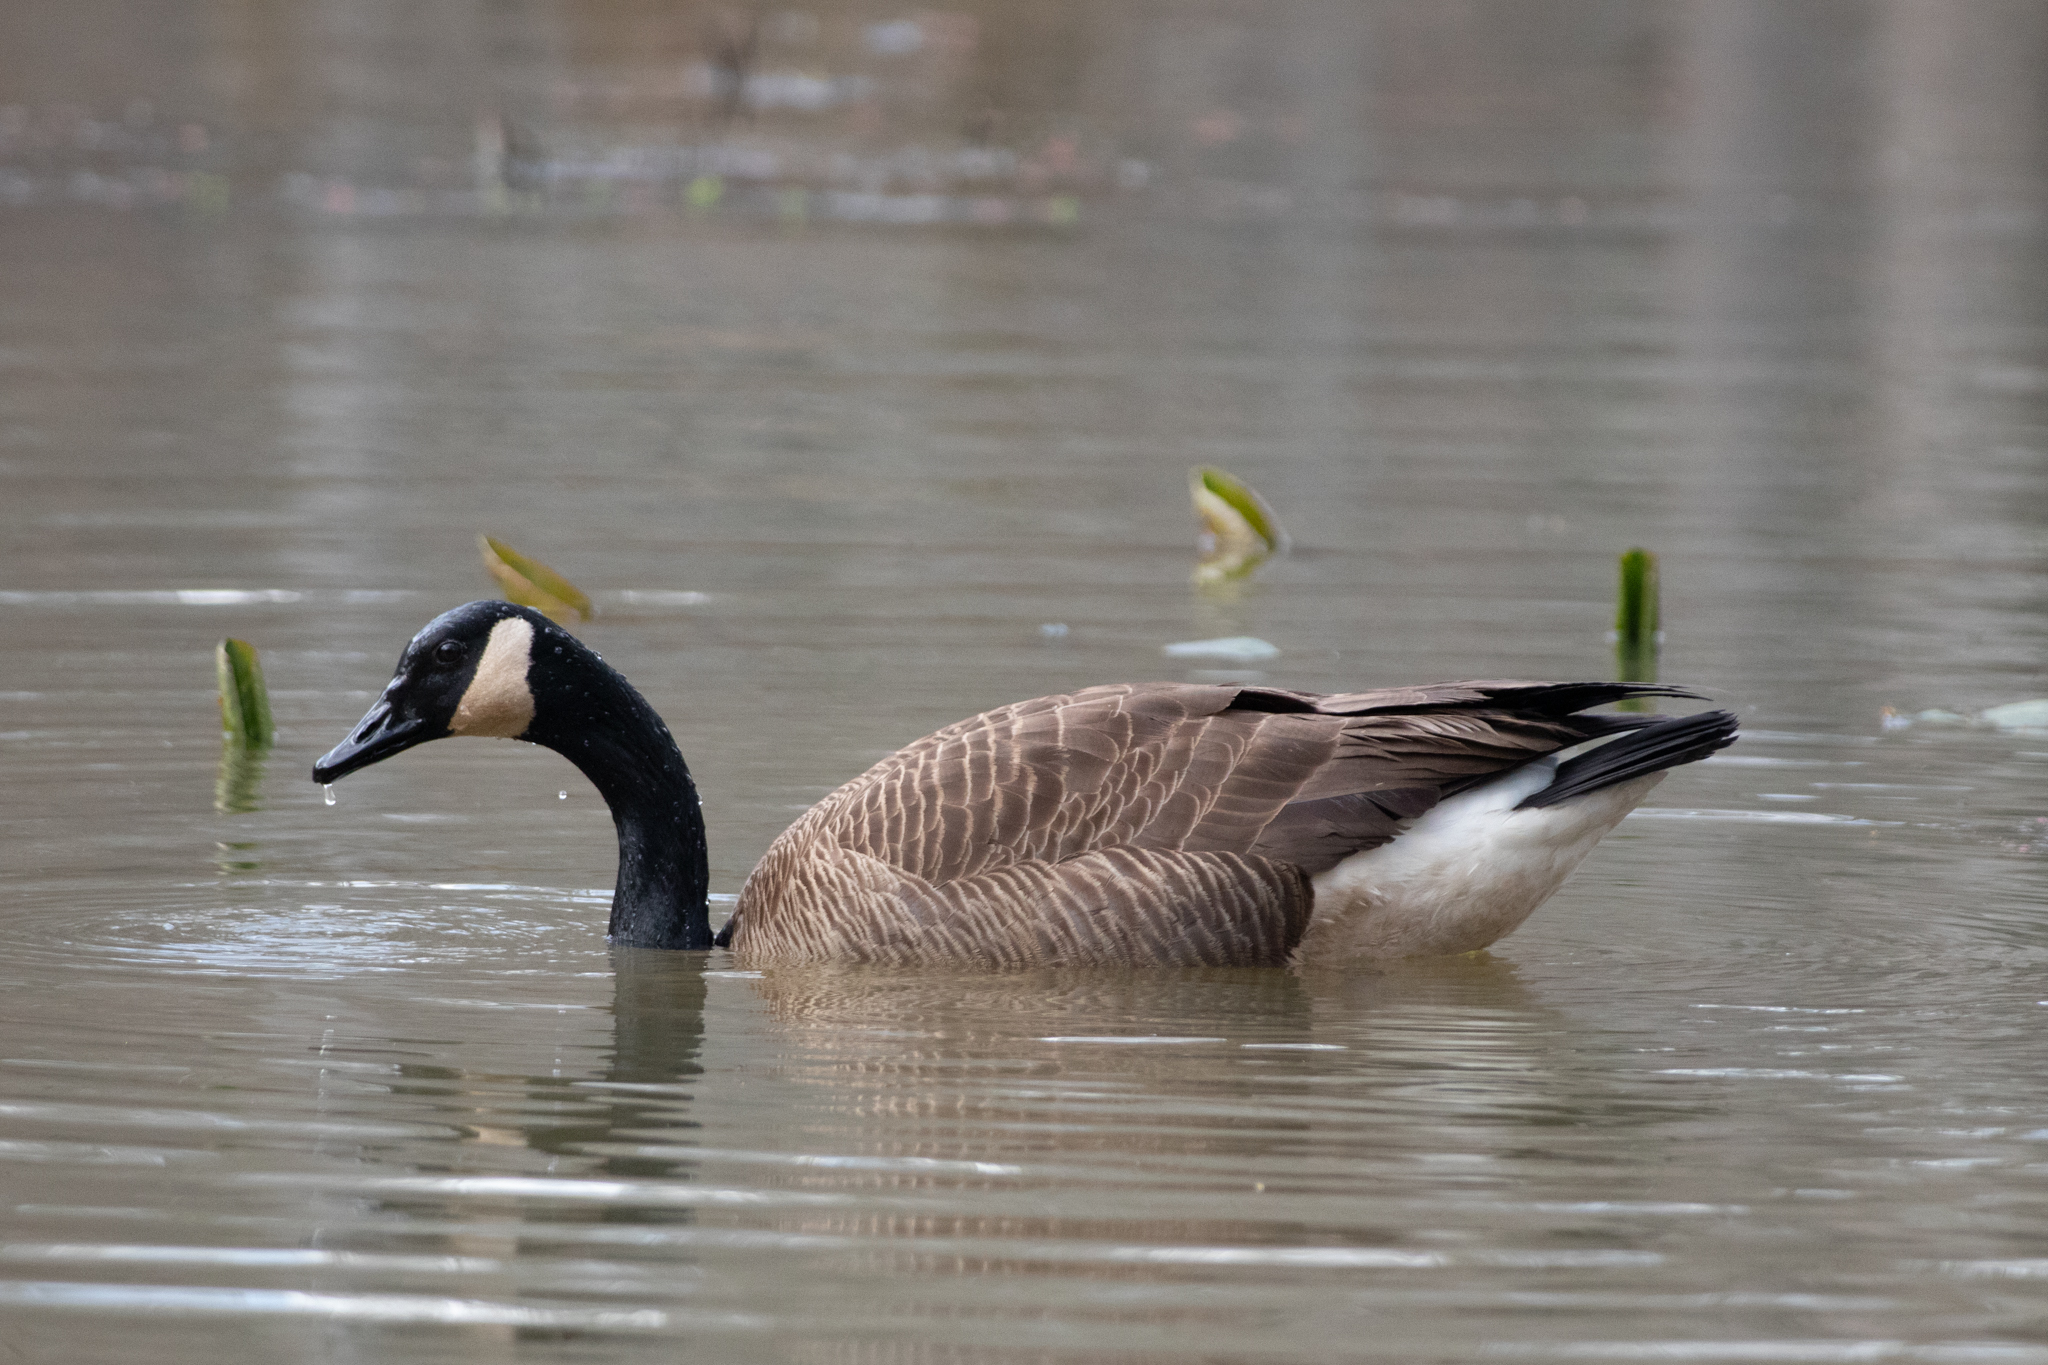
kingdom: Animalia
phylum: Chordata
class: Aves
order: Anseriformes
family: Anatidae
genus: Branta
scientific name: Branta canadensis
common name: Canada goose
